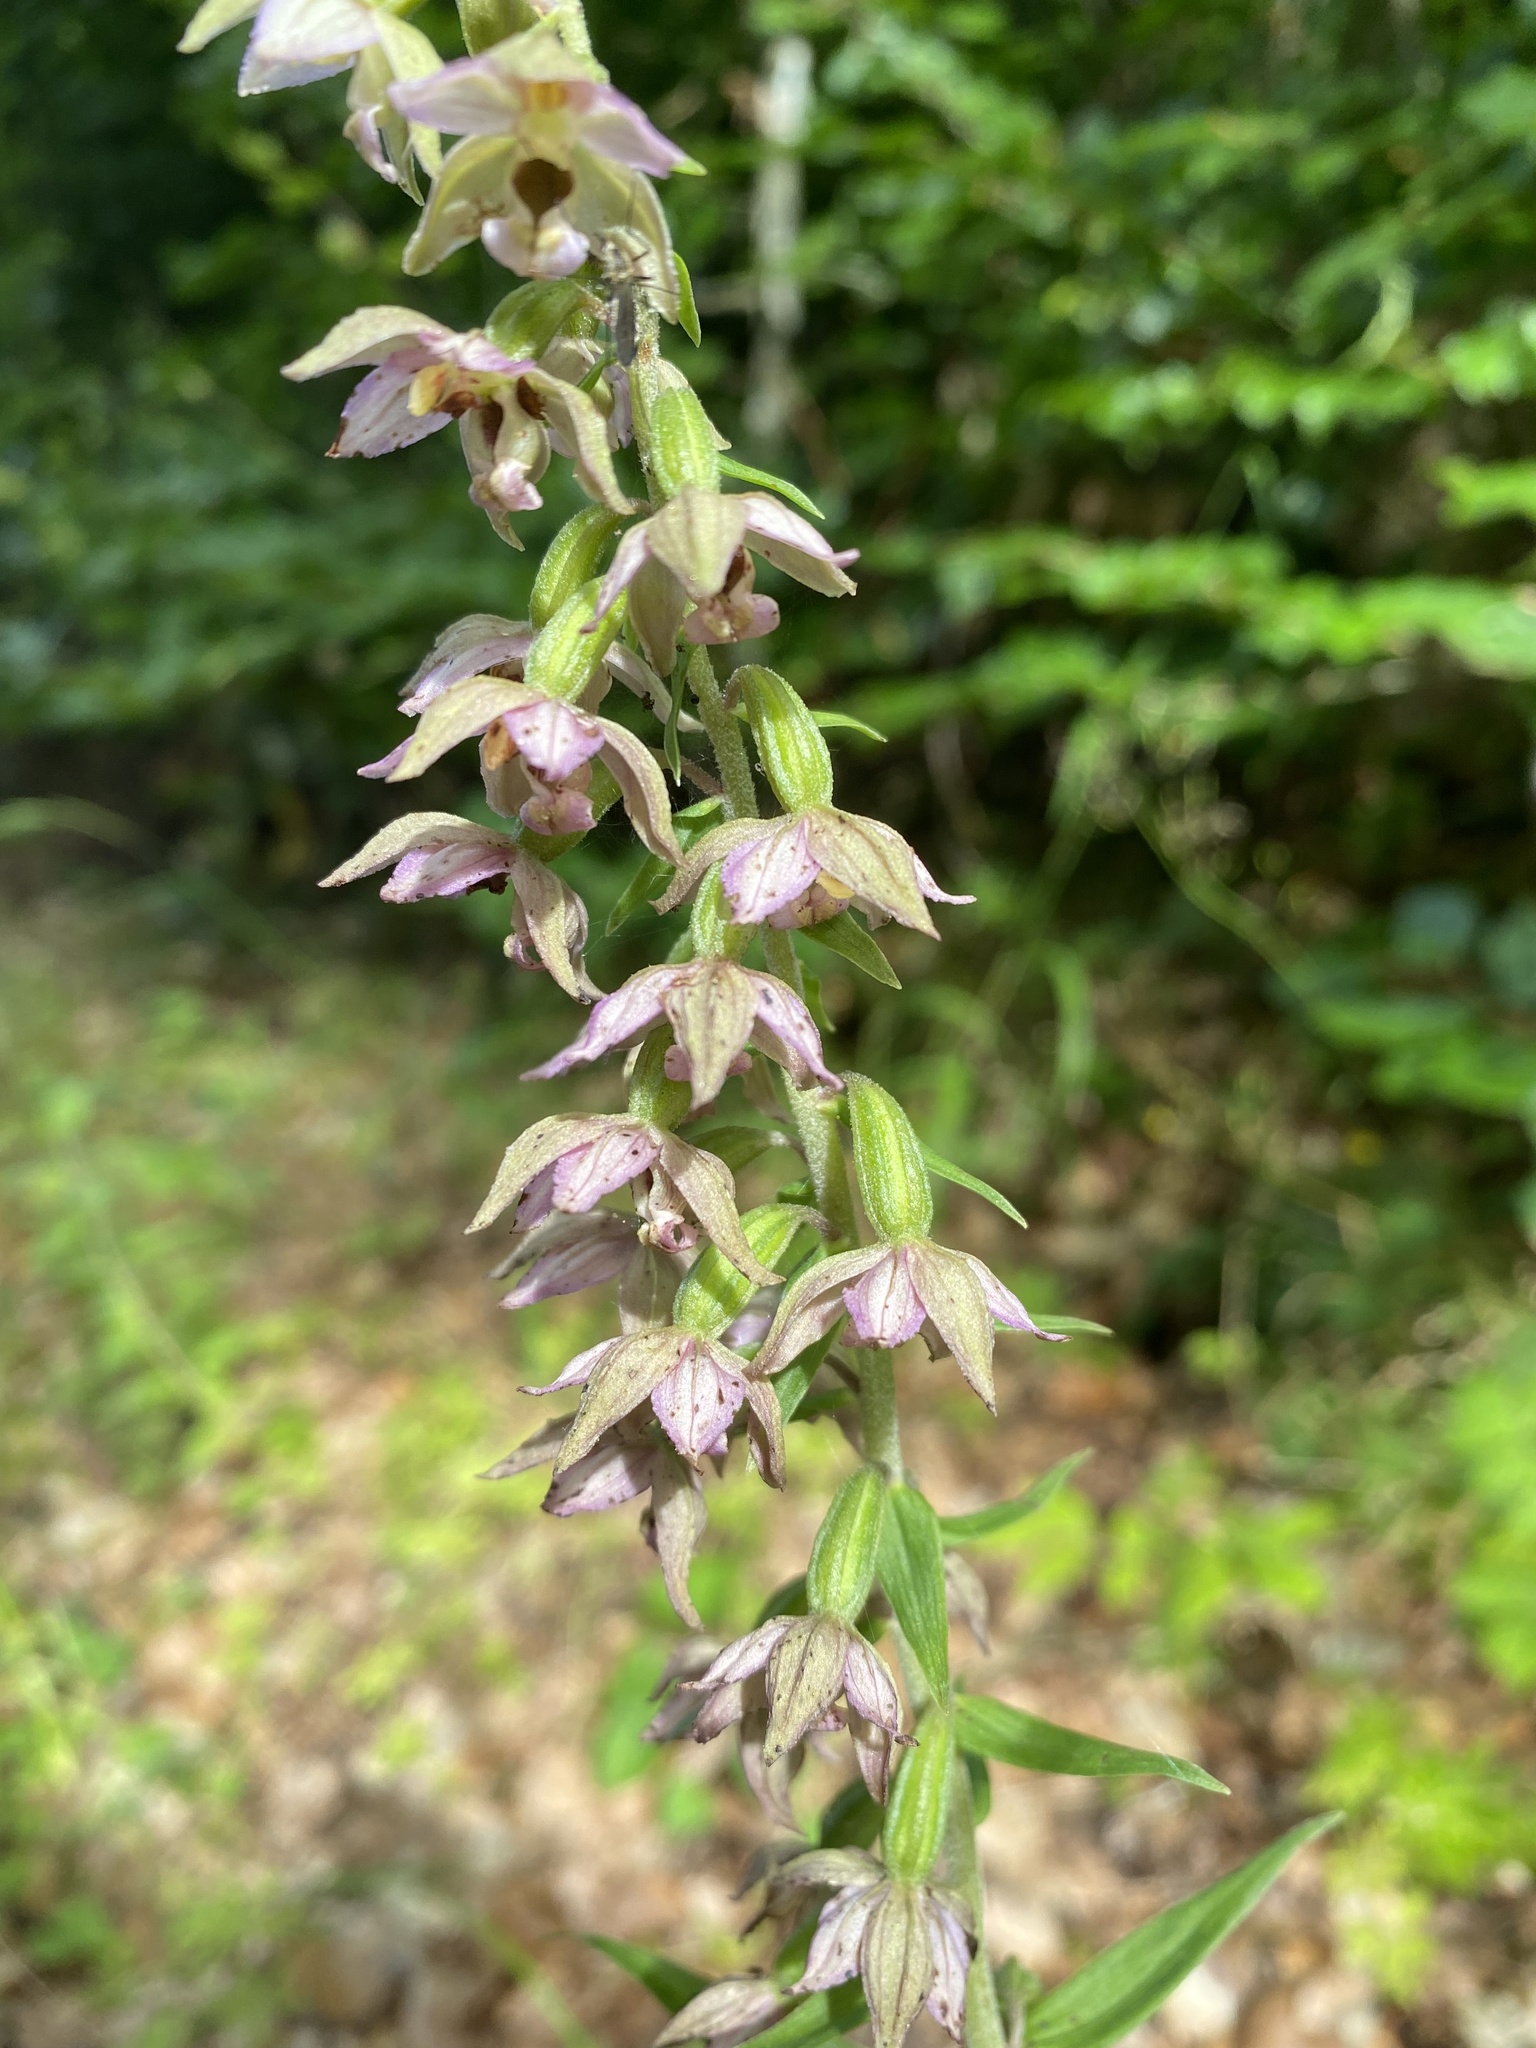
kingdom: Plantae
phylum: Tracheophyta
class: Liliopsida
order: Asparagales
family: Orchidaceae
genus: Epipactis
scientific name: Epipactis helleborine
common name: Broad-leaved helleborine
